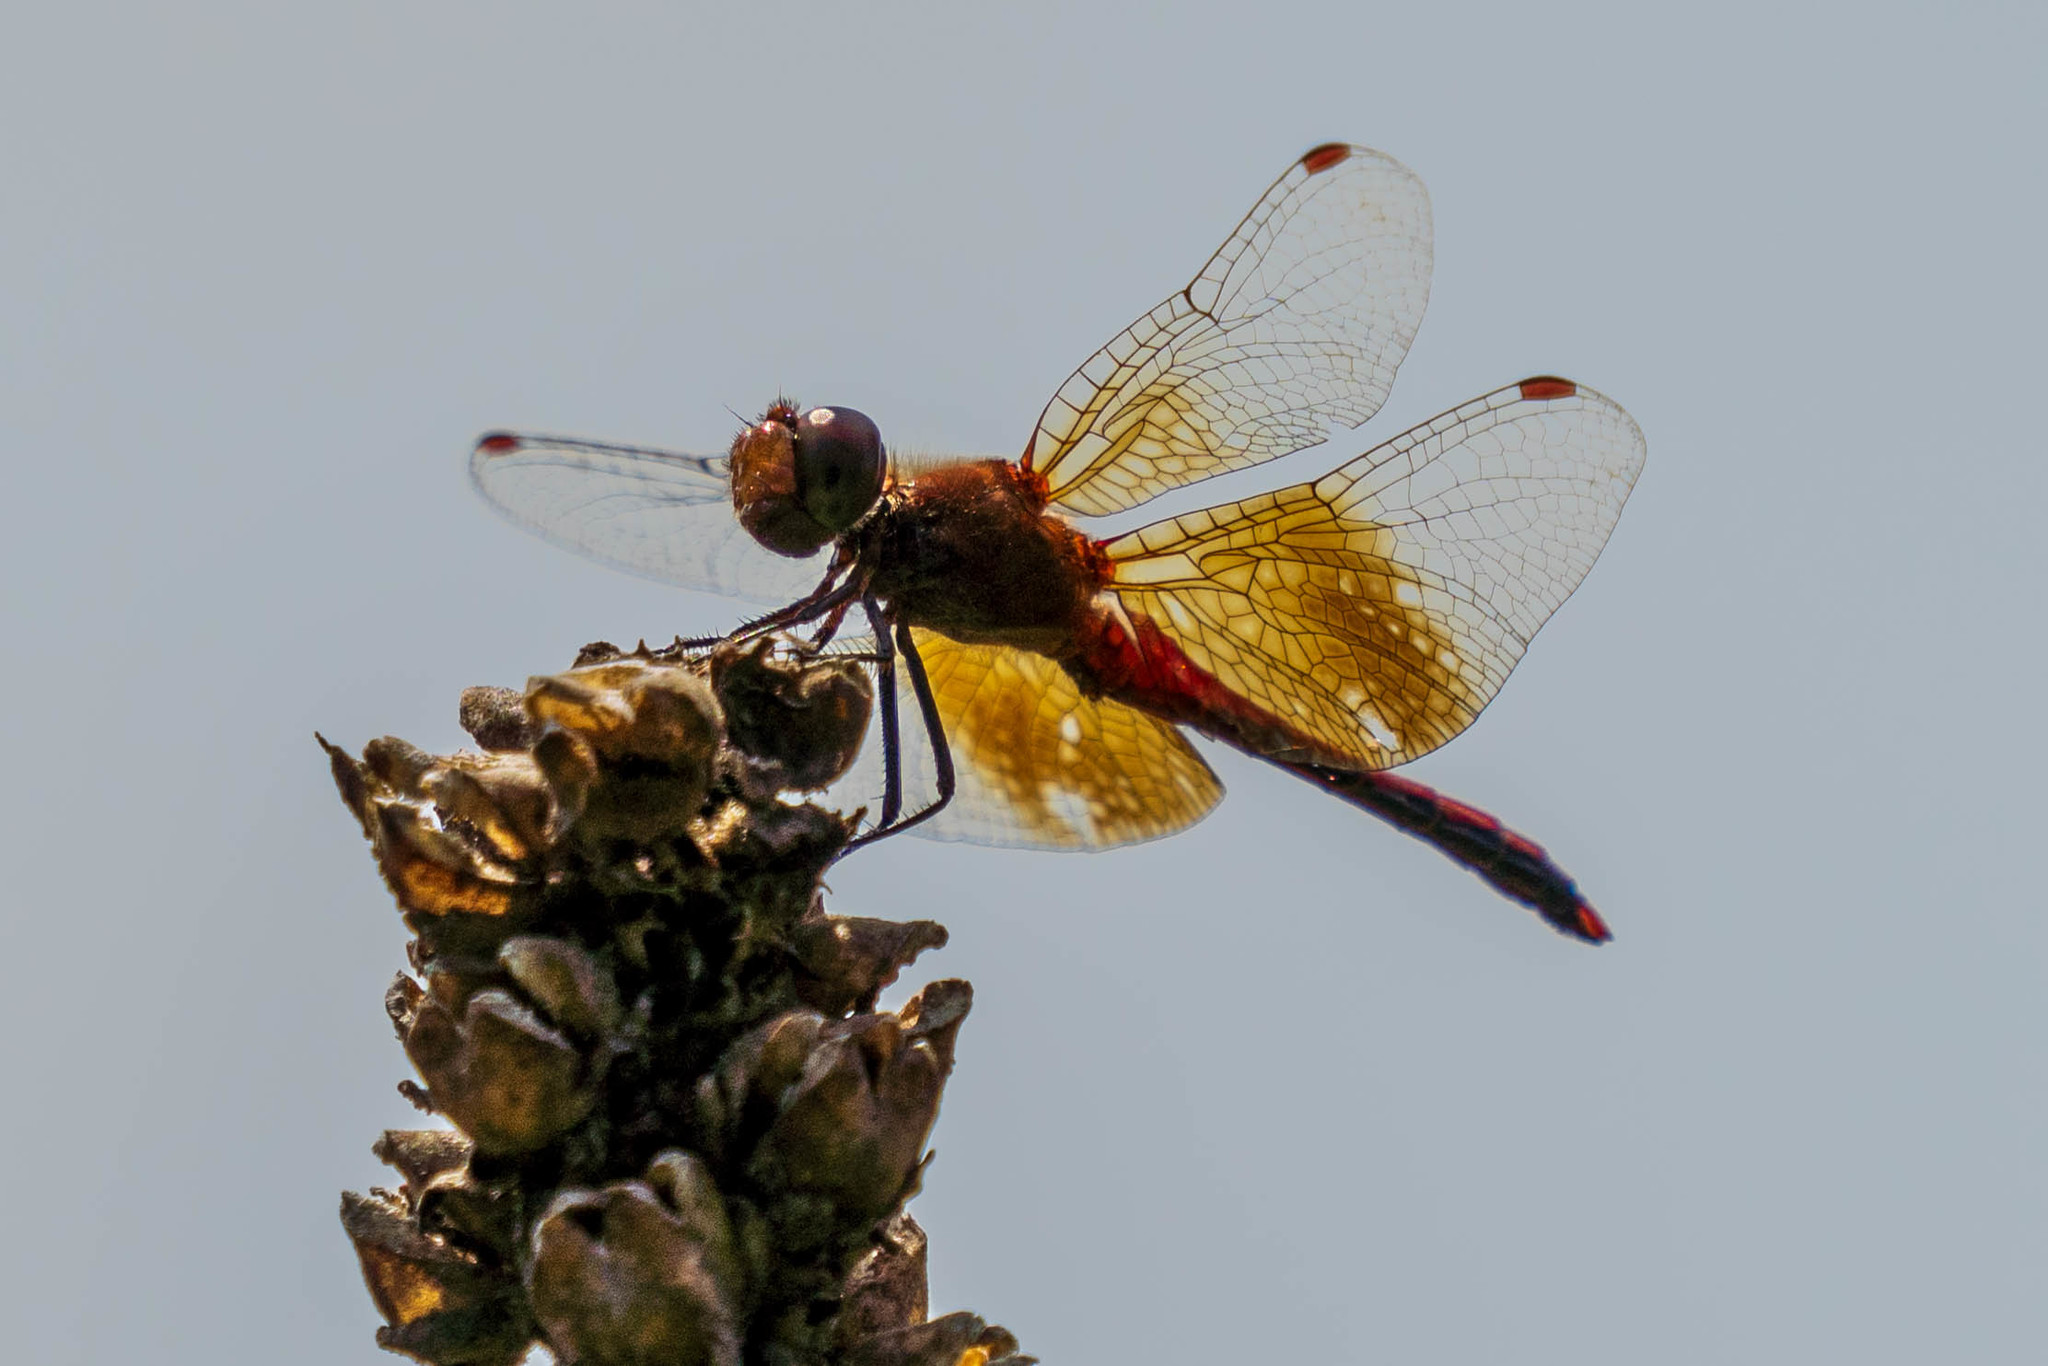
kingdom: Animalia
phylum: Arthropoda
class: Insecta
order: Odonata
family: Libellulidae
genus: Sympetrum
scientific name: Sympetrum semicinctum
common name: Band-winged meadowhawk
